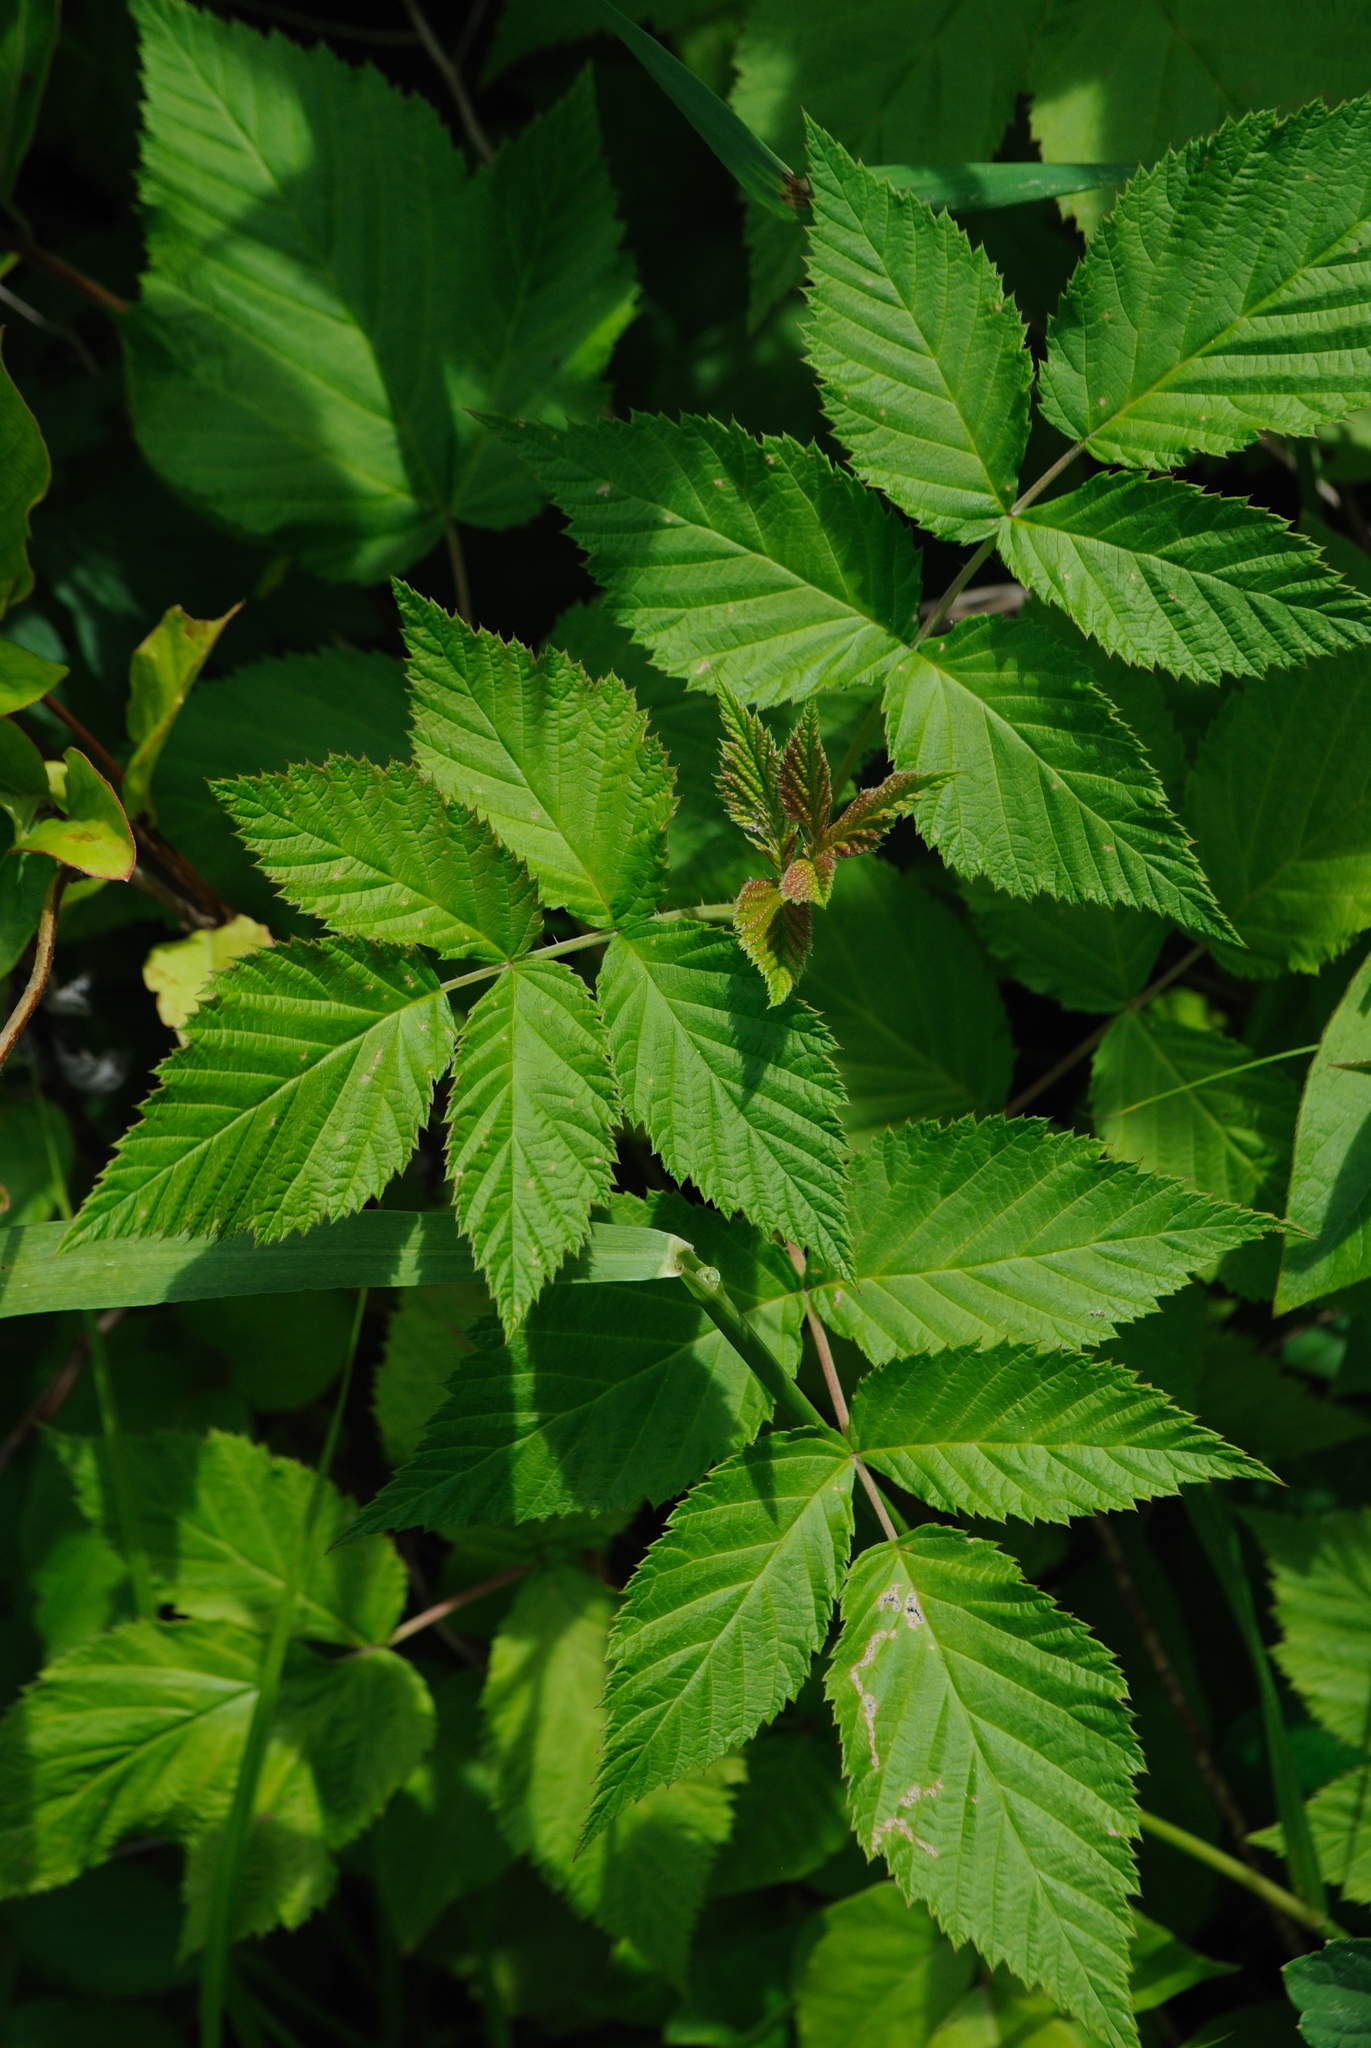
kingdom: Plantae
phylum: Tracheophyta
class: Magnoliopsida
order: Rosales
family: Rosaceae
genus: Rubus
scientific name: Rubus idaeus
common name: Raspberry
